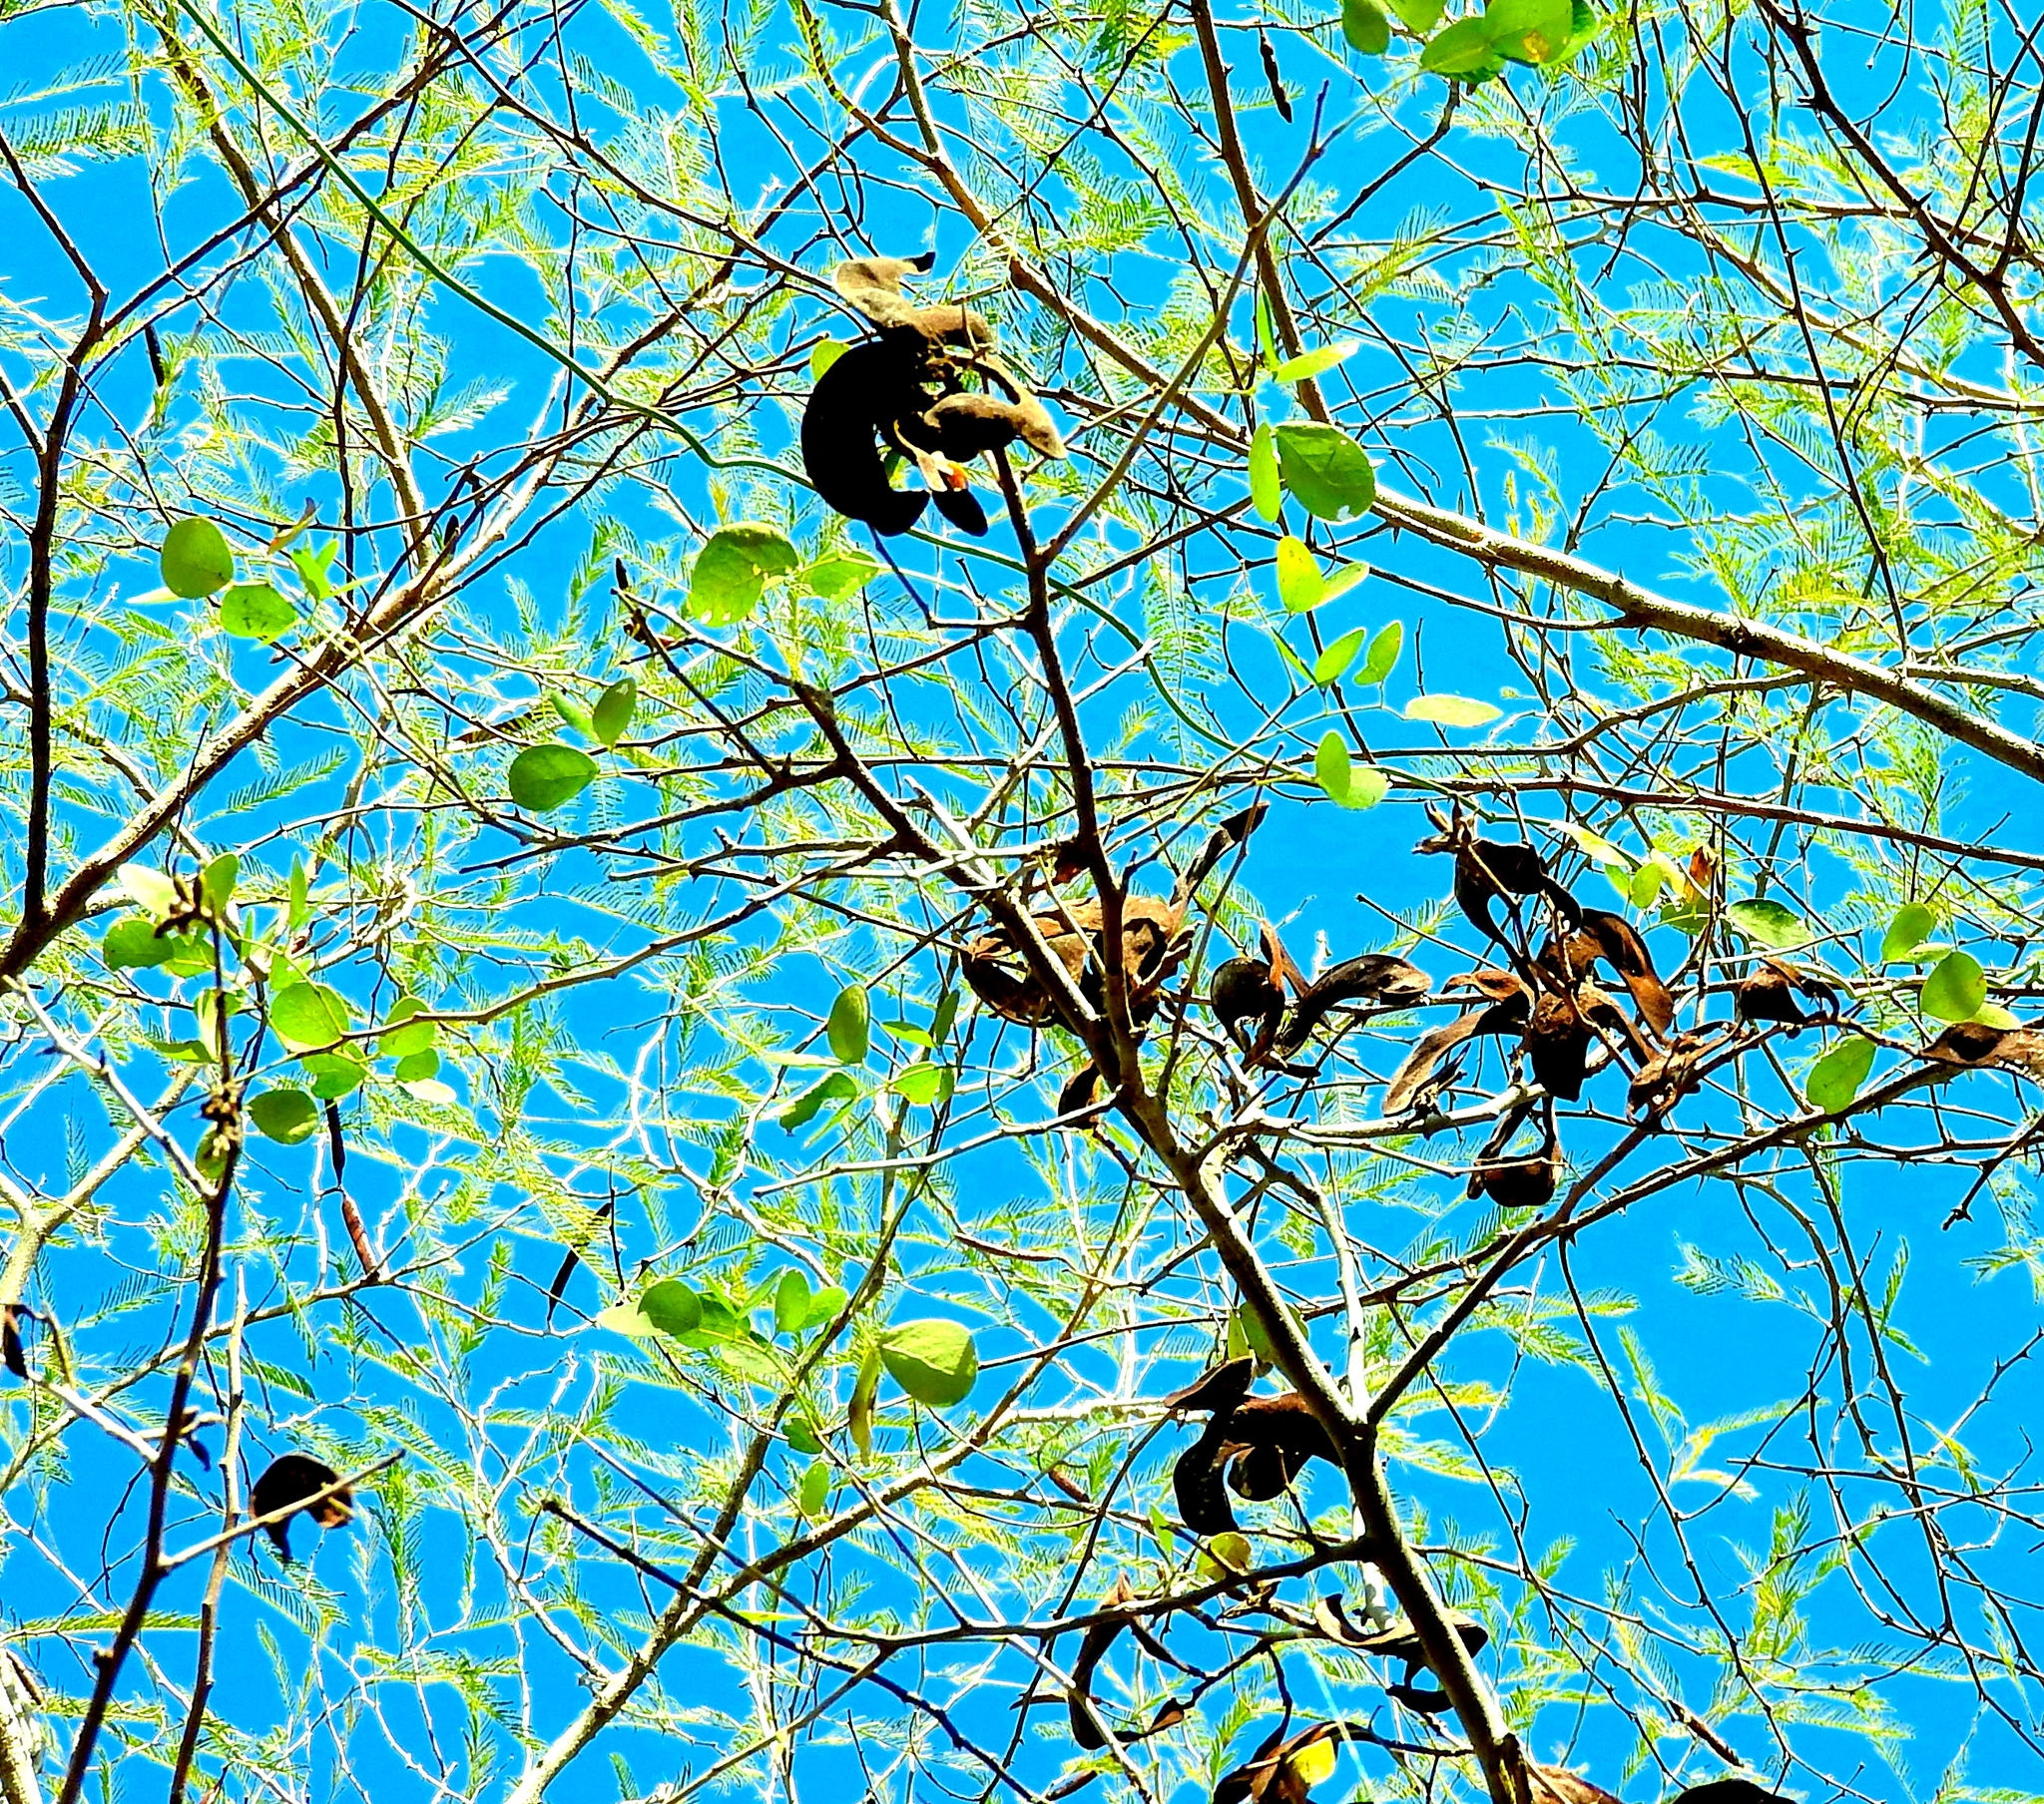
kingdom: Plantae
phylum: Tracheophyta
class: Magnoliopsida
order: Fabales
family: Fabaceae
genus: Microlobius
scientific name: Microlobius foetidus
